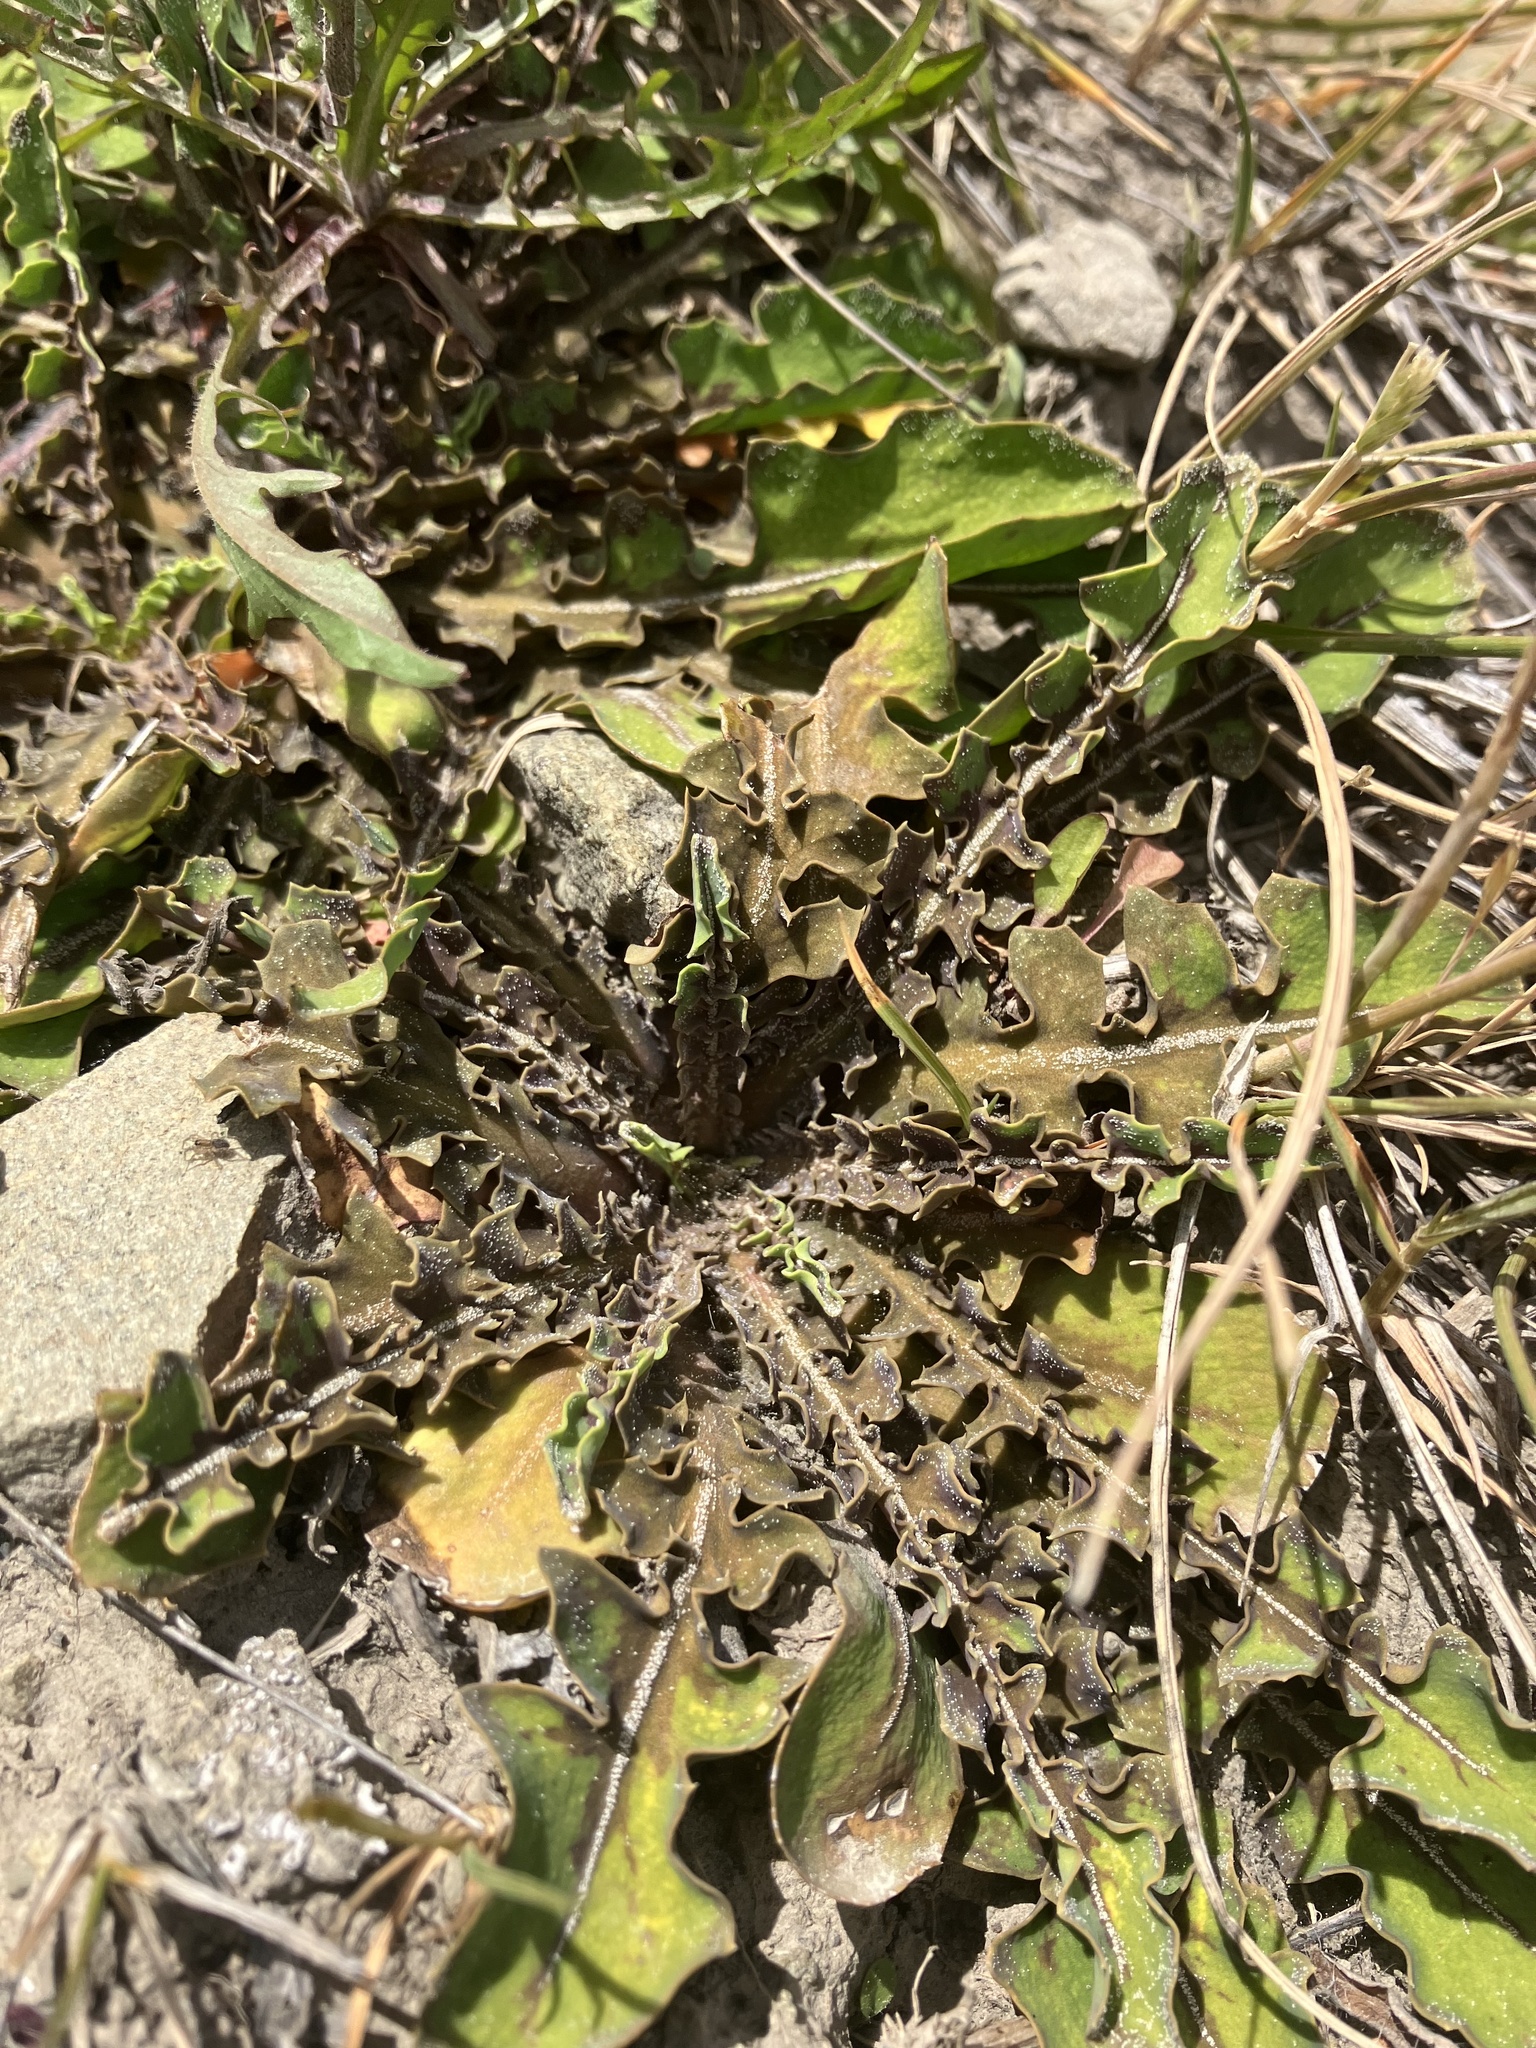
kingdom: Plantae
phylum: Tracheophyta
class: Magnoliopsida
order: Asterales
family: Asteraceae
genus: Sonchus
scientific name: Sonchus novae-zelandiae
